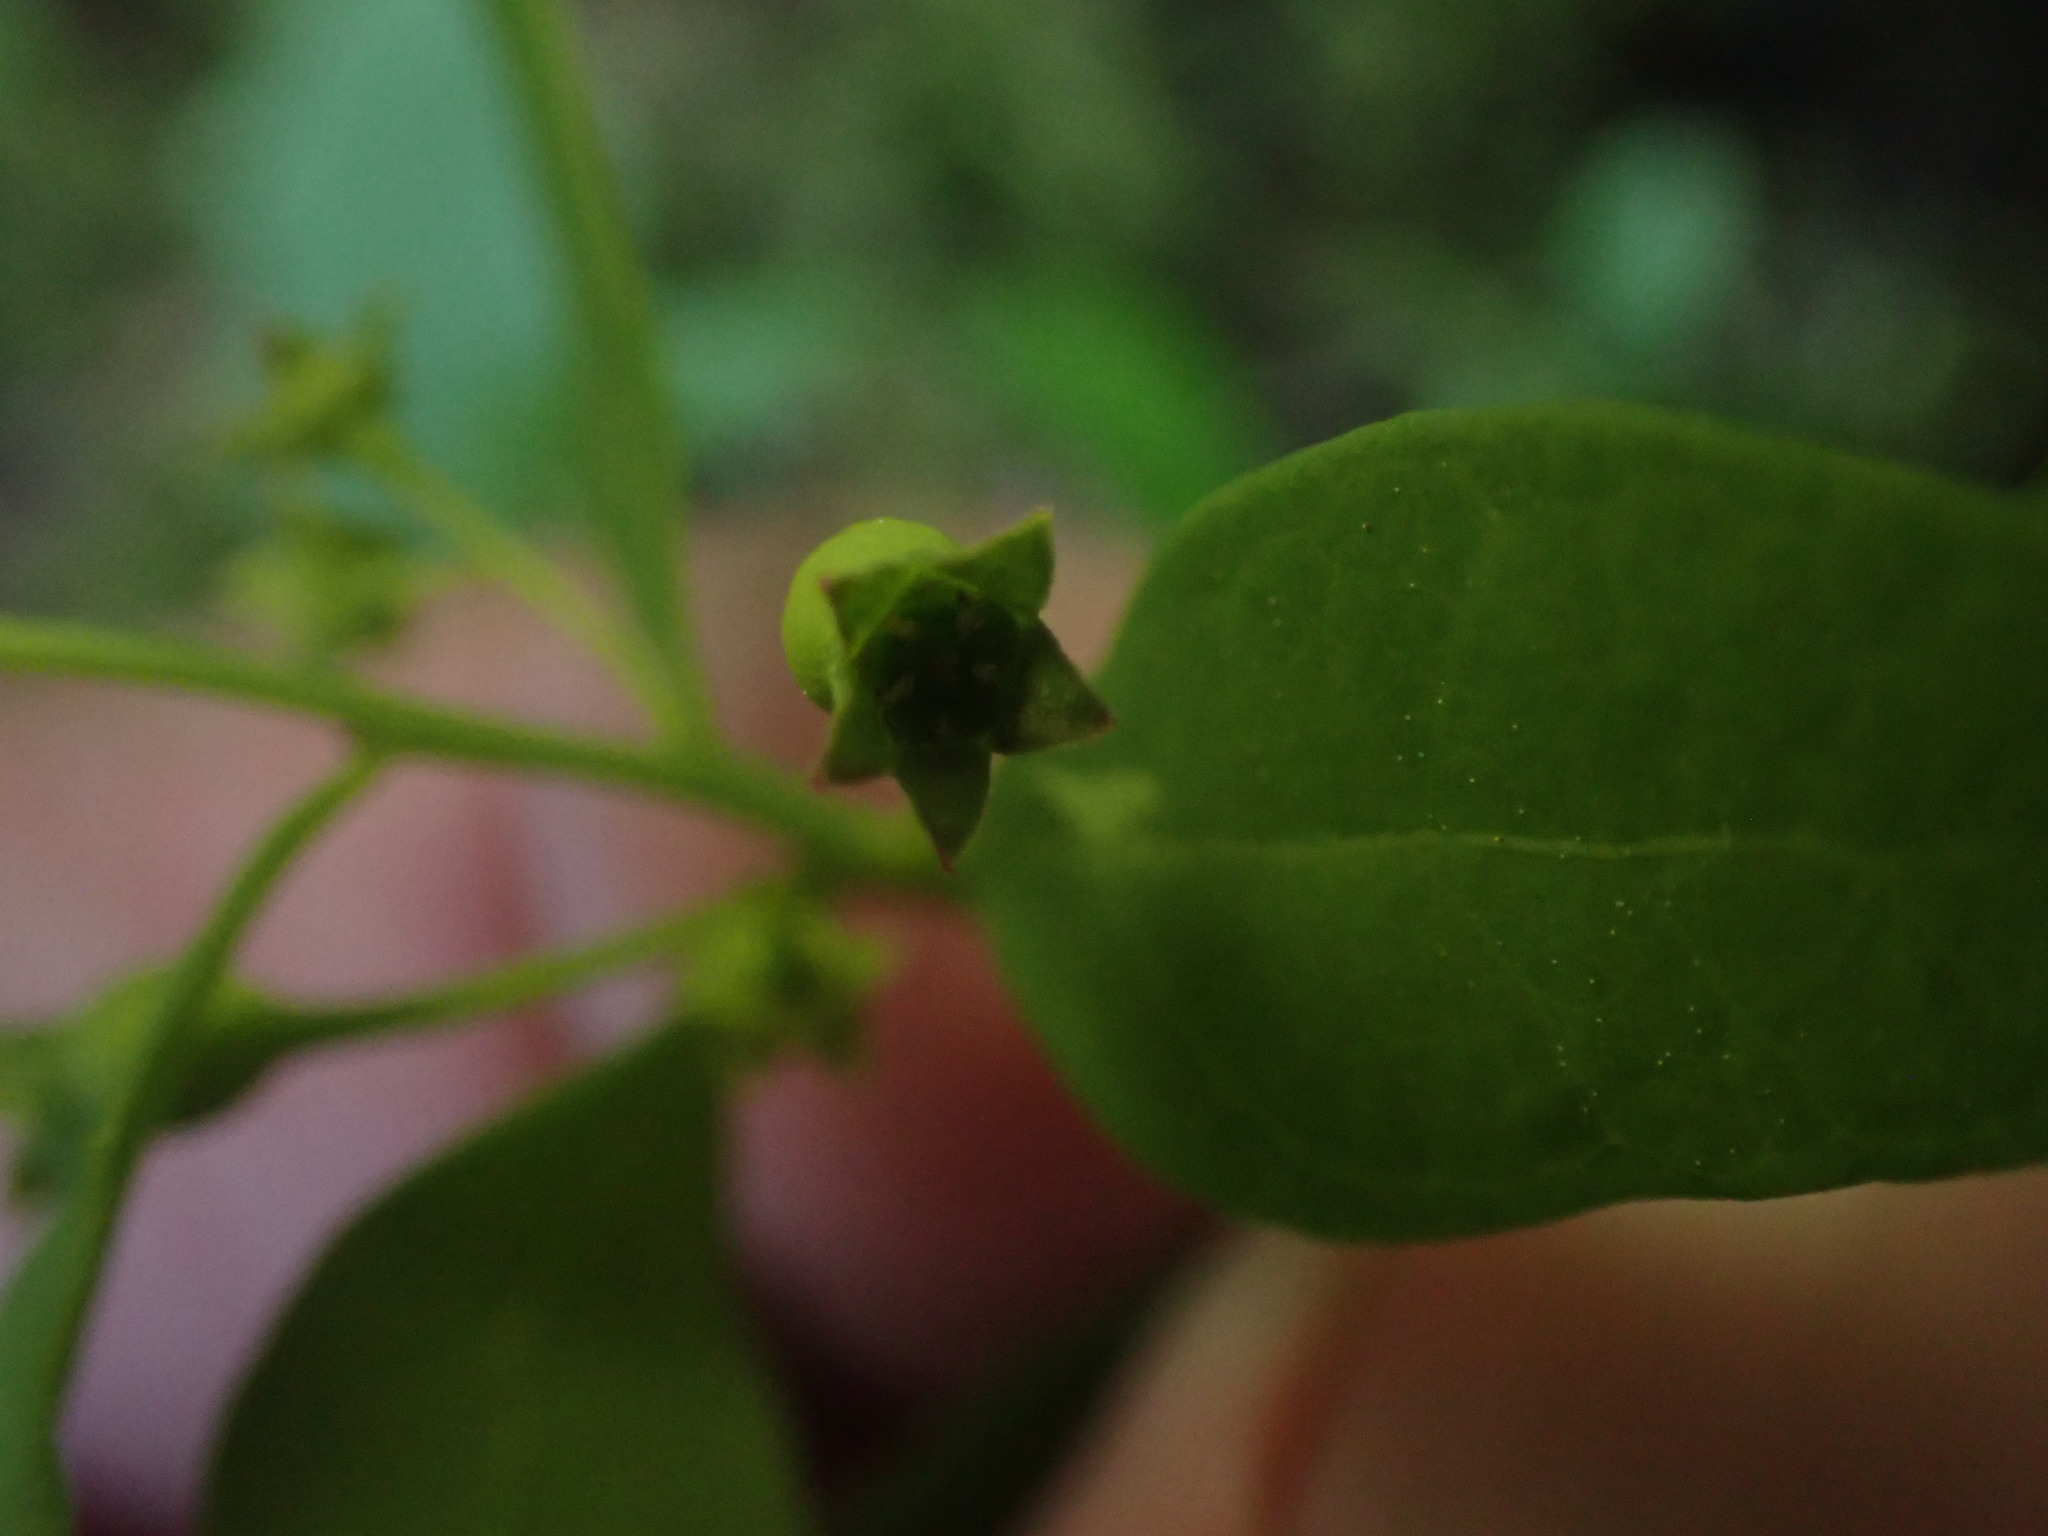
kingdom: Plantae
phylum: Tracheophyta
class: Magnoliopsida
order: Santalales
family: Comandraceae
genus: Geocaulon
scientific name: Geocaulon lividum
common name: Earthberry
